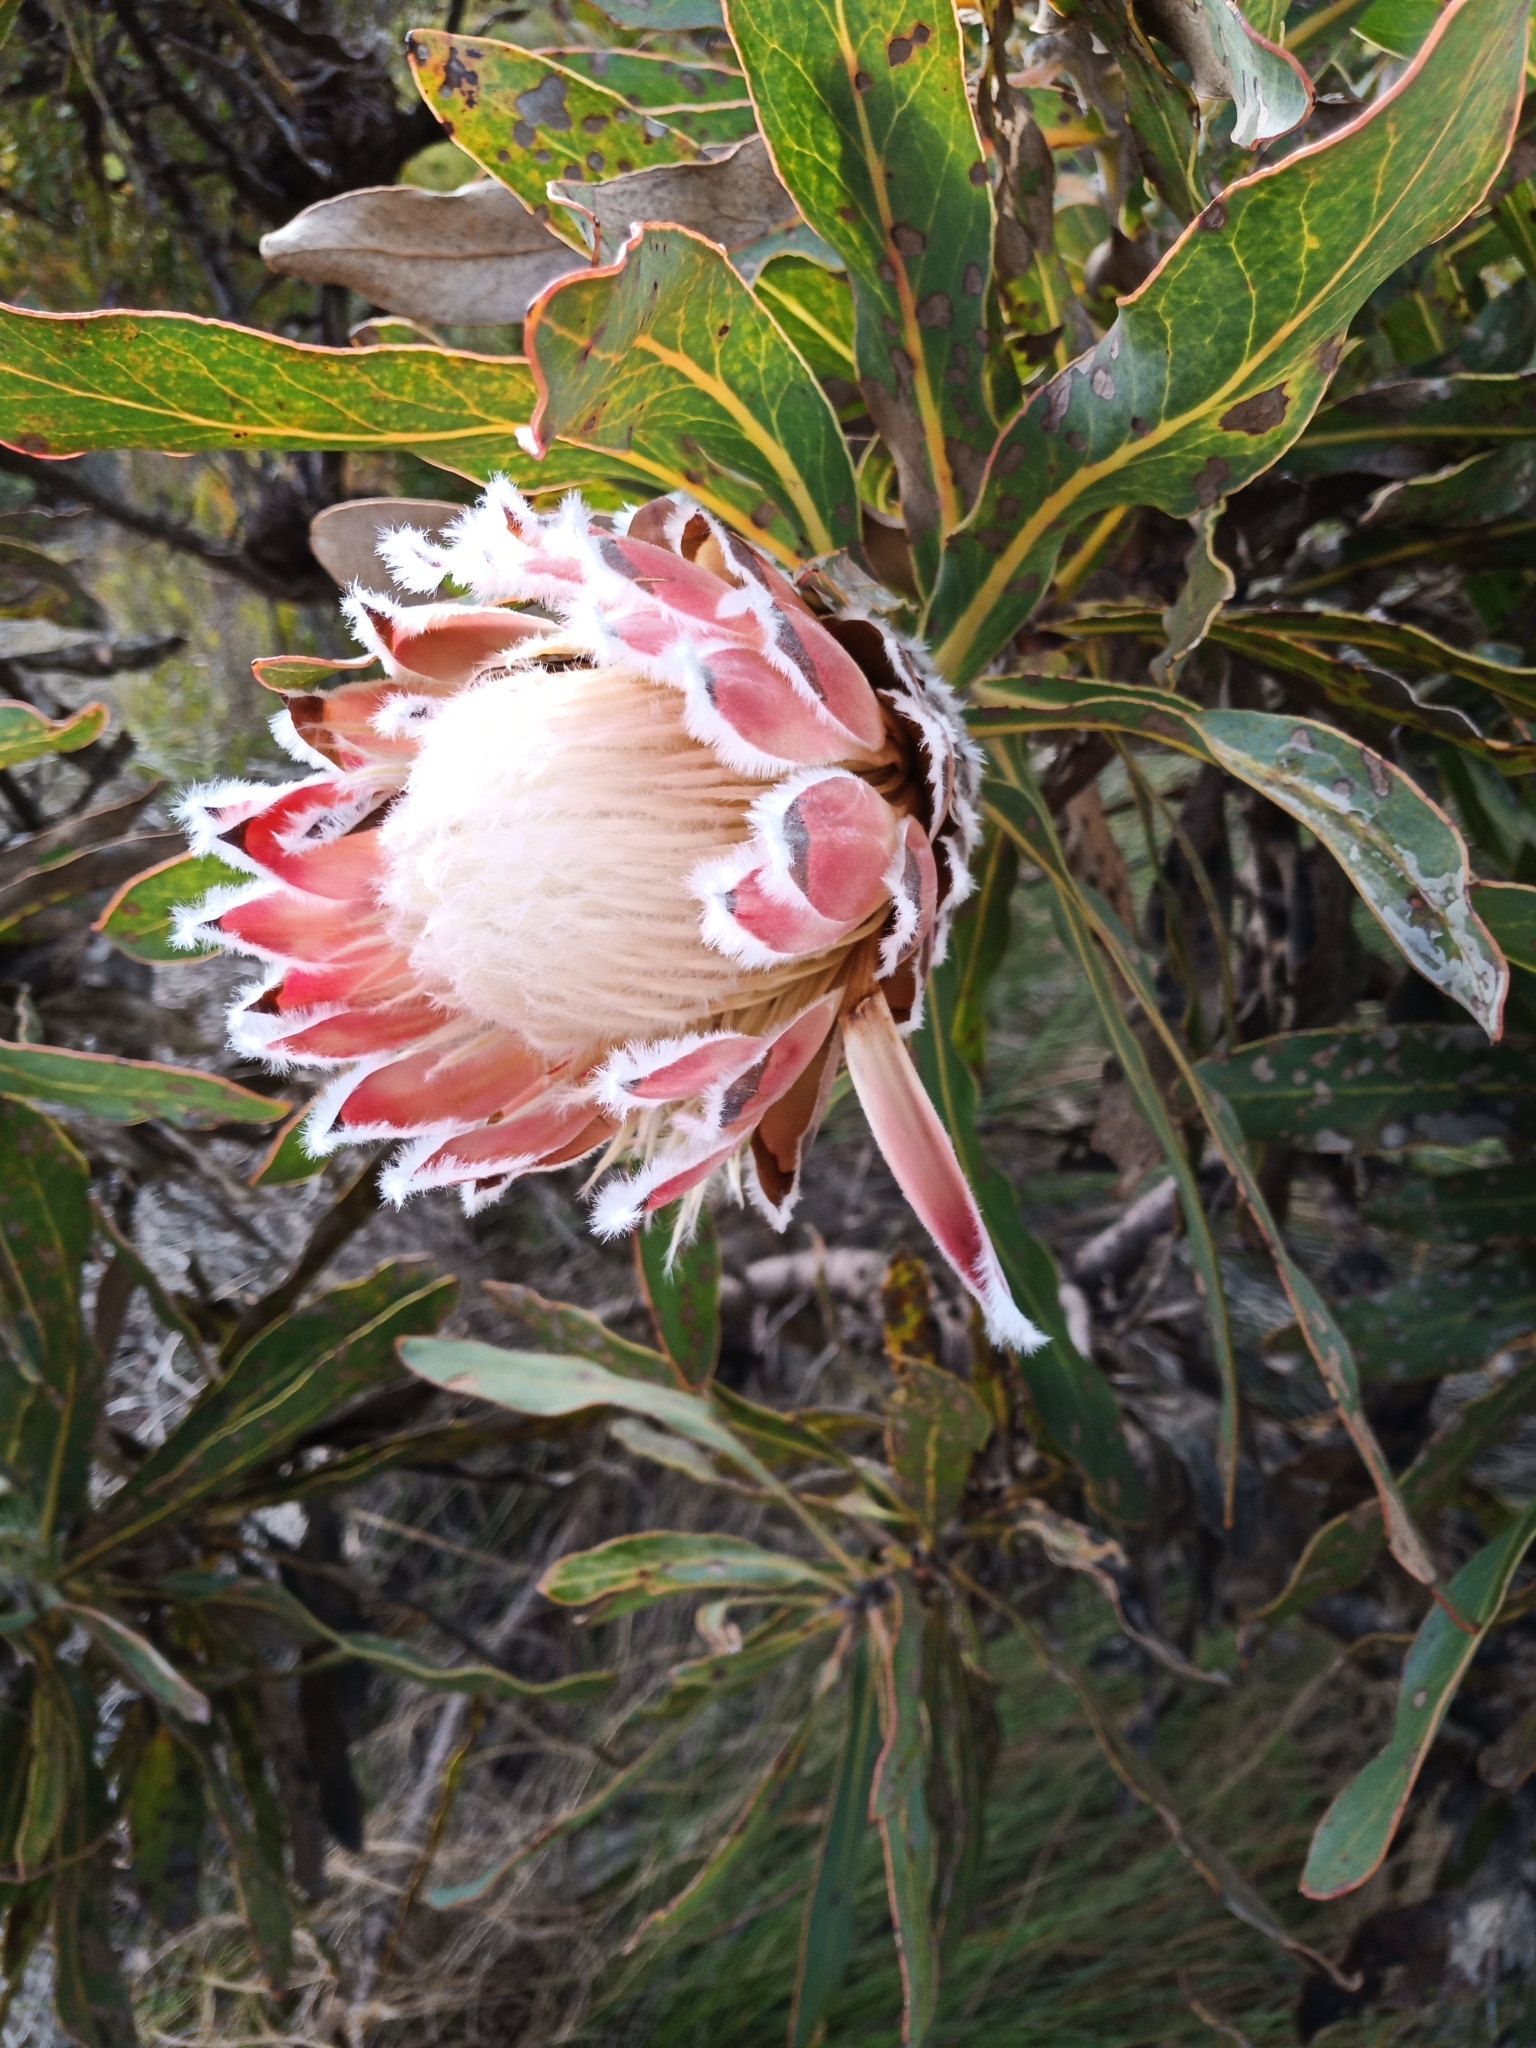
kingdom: Plantae
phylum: Tracheophyta
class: Magnoliopsida
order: Proteales
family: Proteaceae
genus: Protea
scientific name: Protea magnifica
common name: Bearded sugarbush
